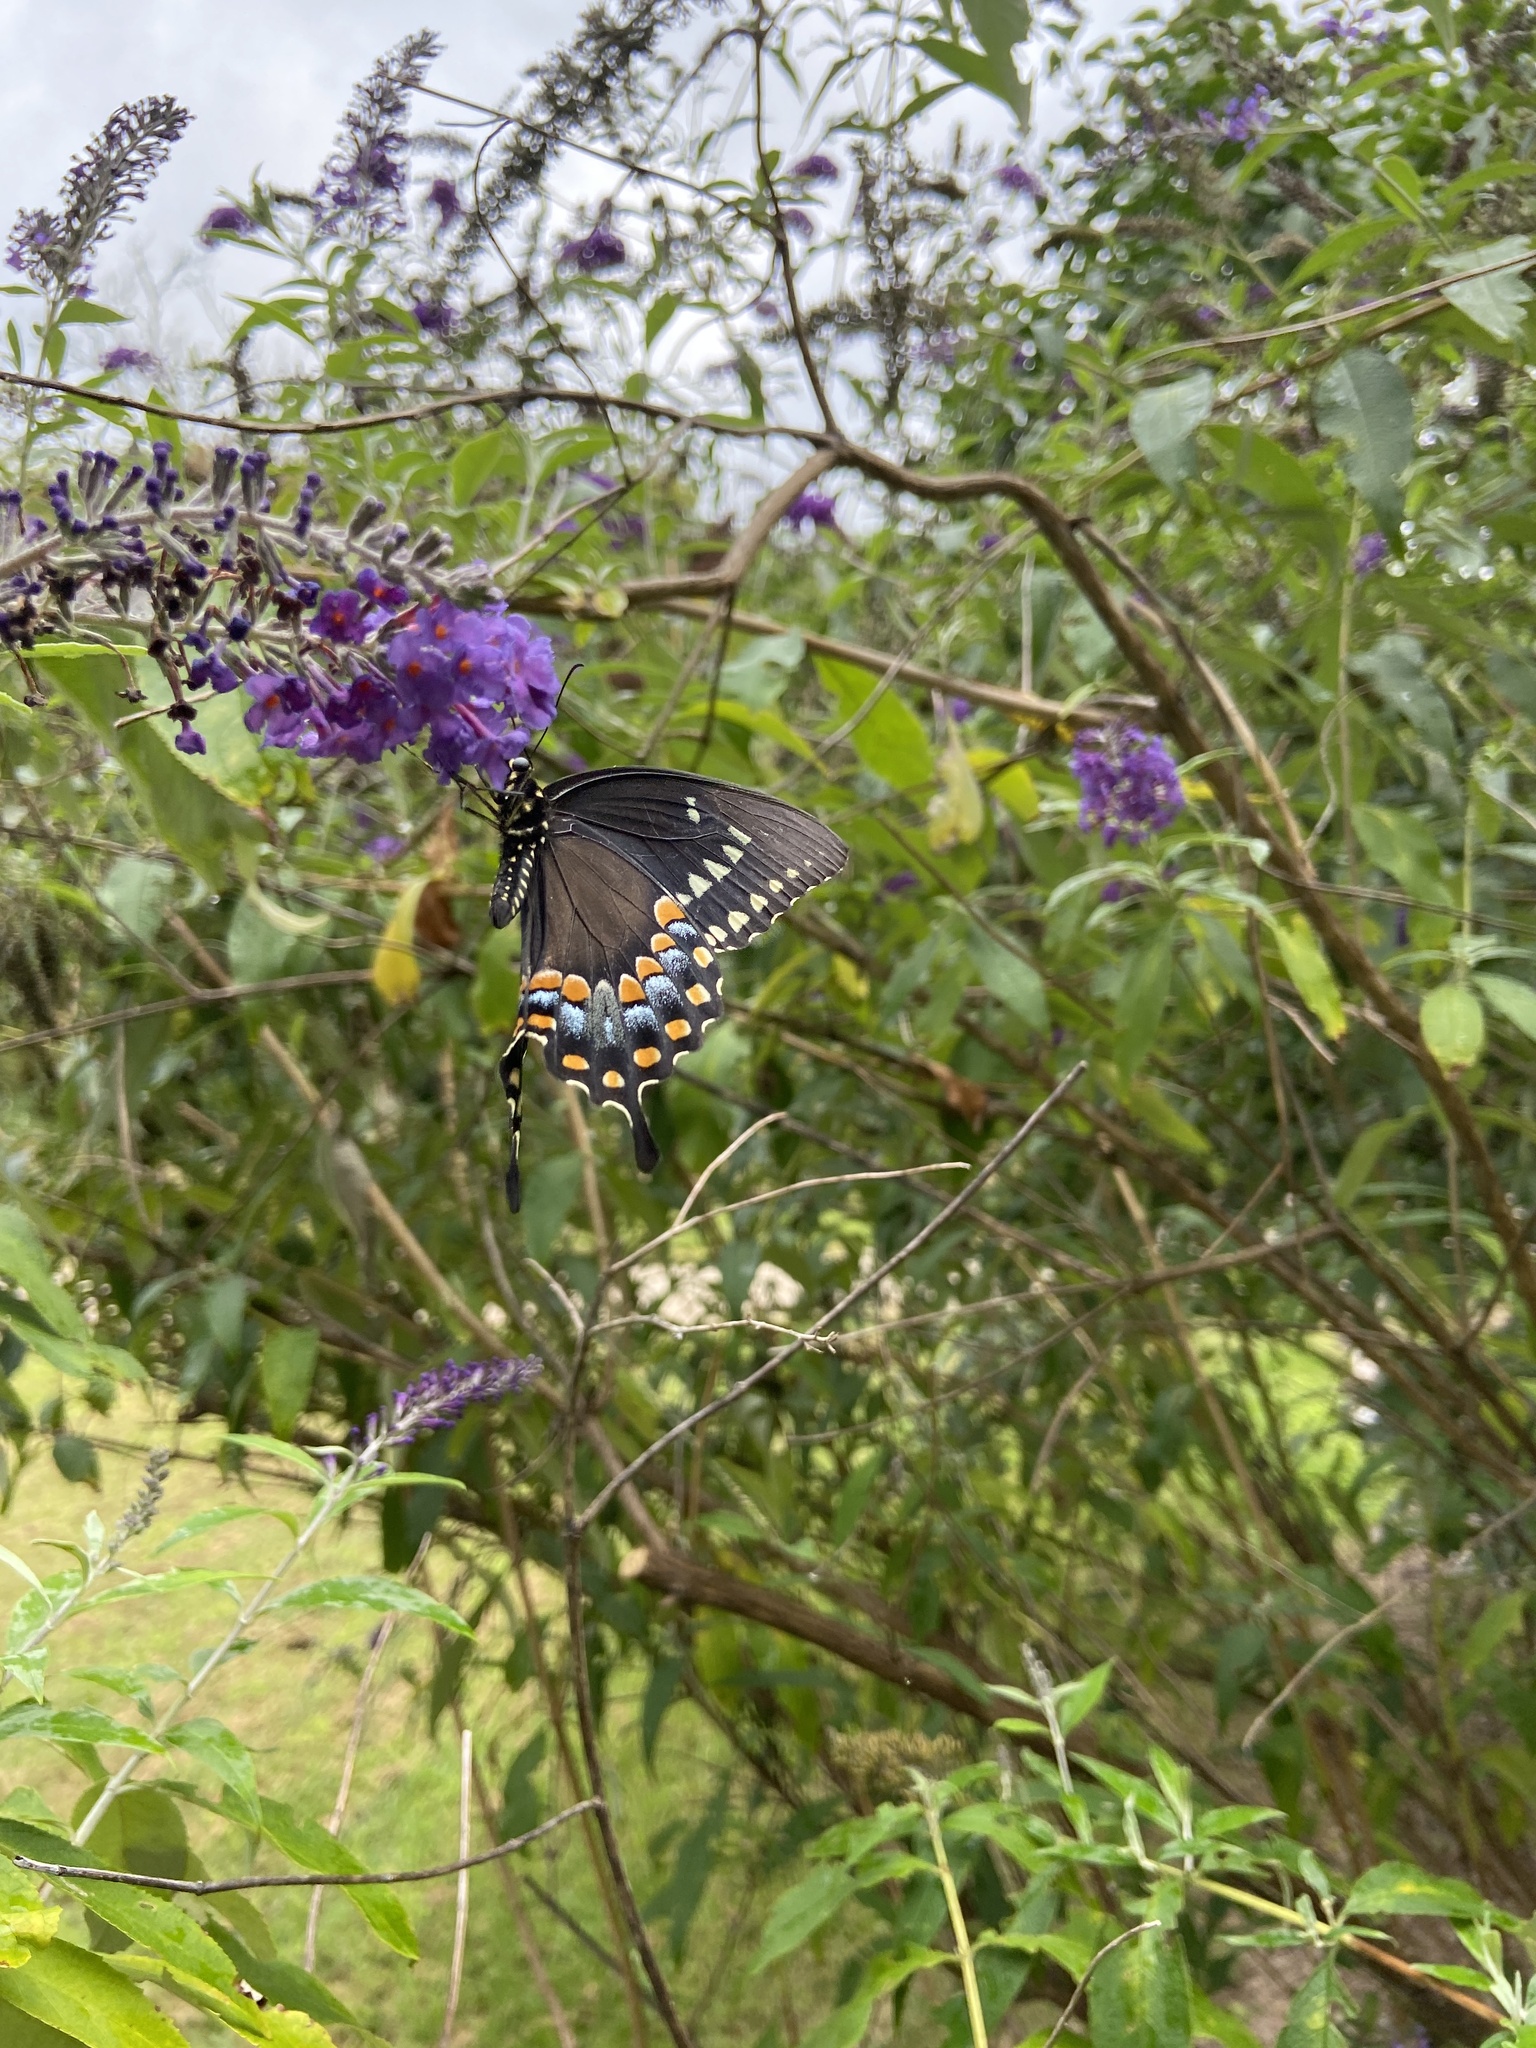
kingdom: Animalia
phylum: Arthropoda
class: Insecta
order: Lepidoptera
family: Papilionidae
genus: Papilio
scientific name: Papilio troilus
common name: Spicebush swallowtail
